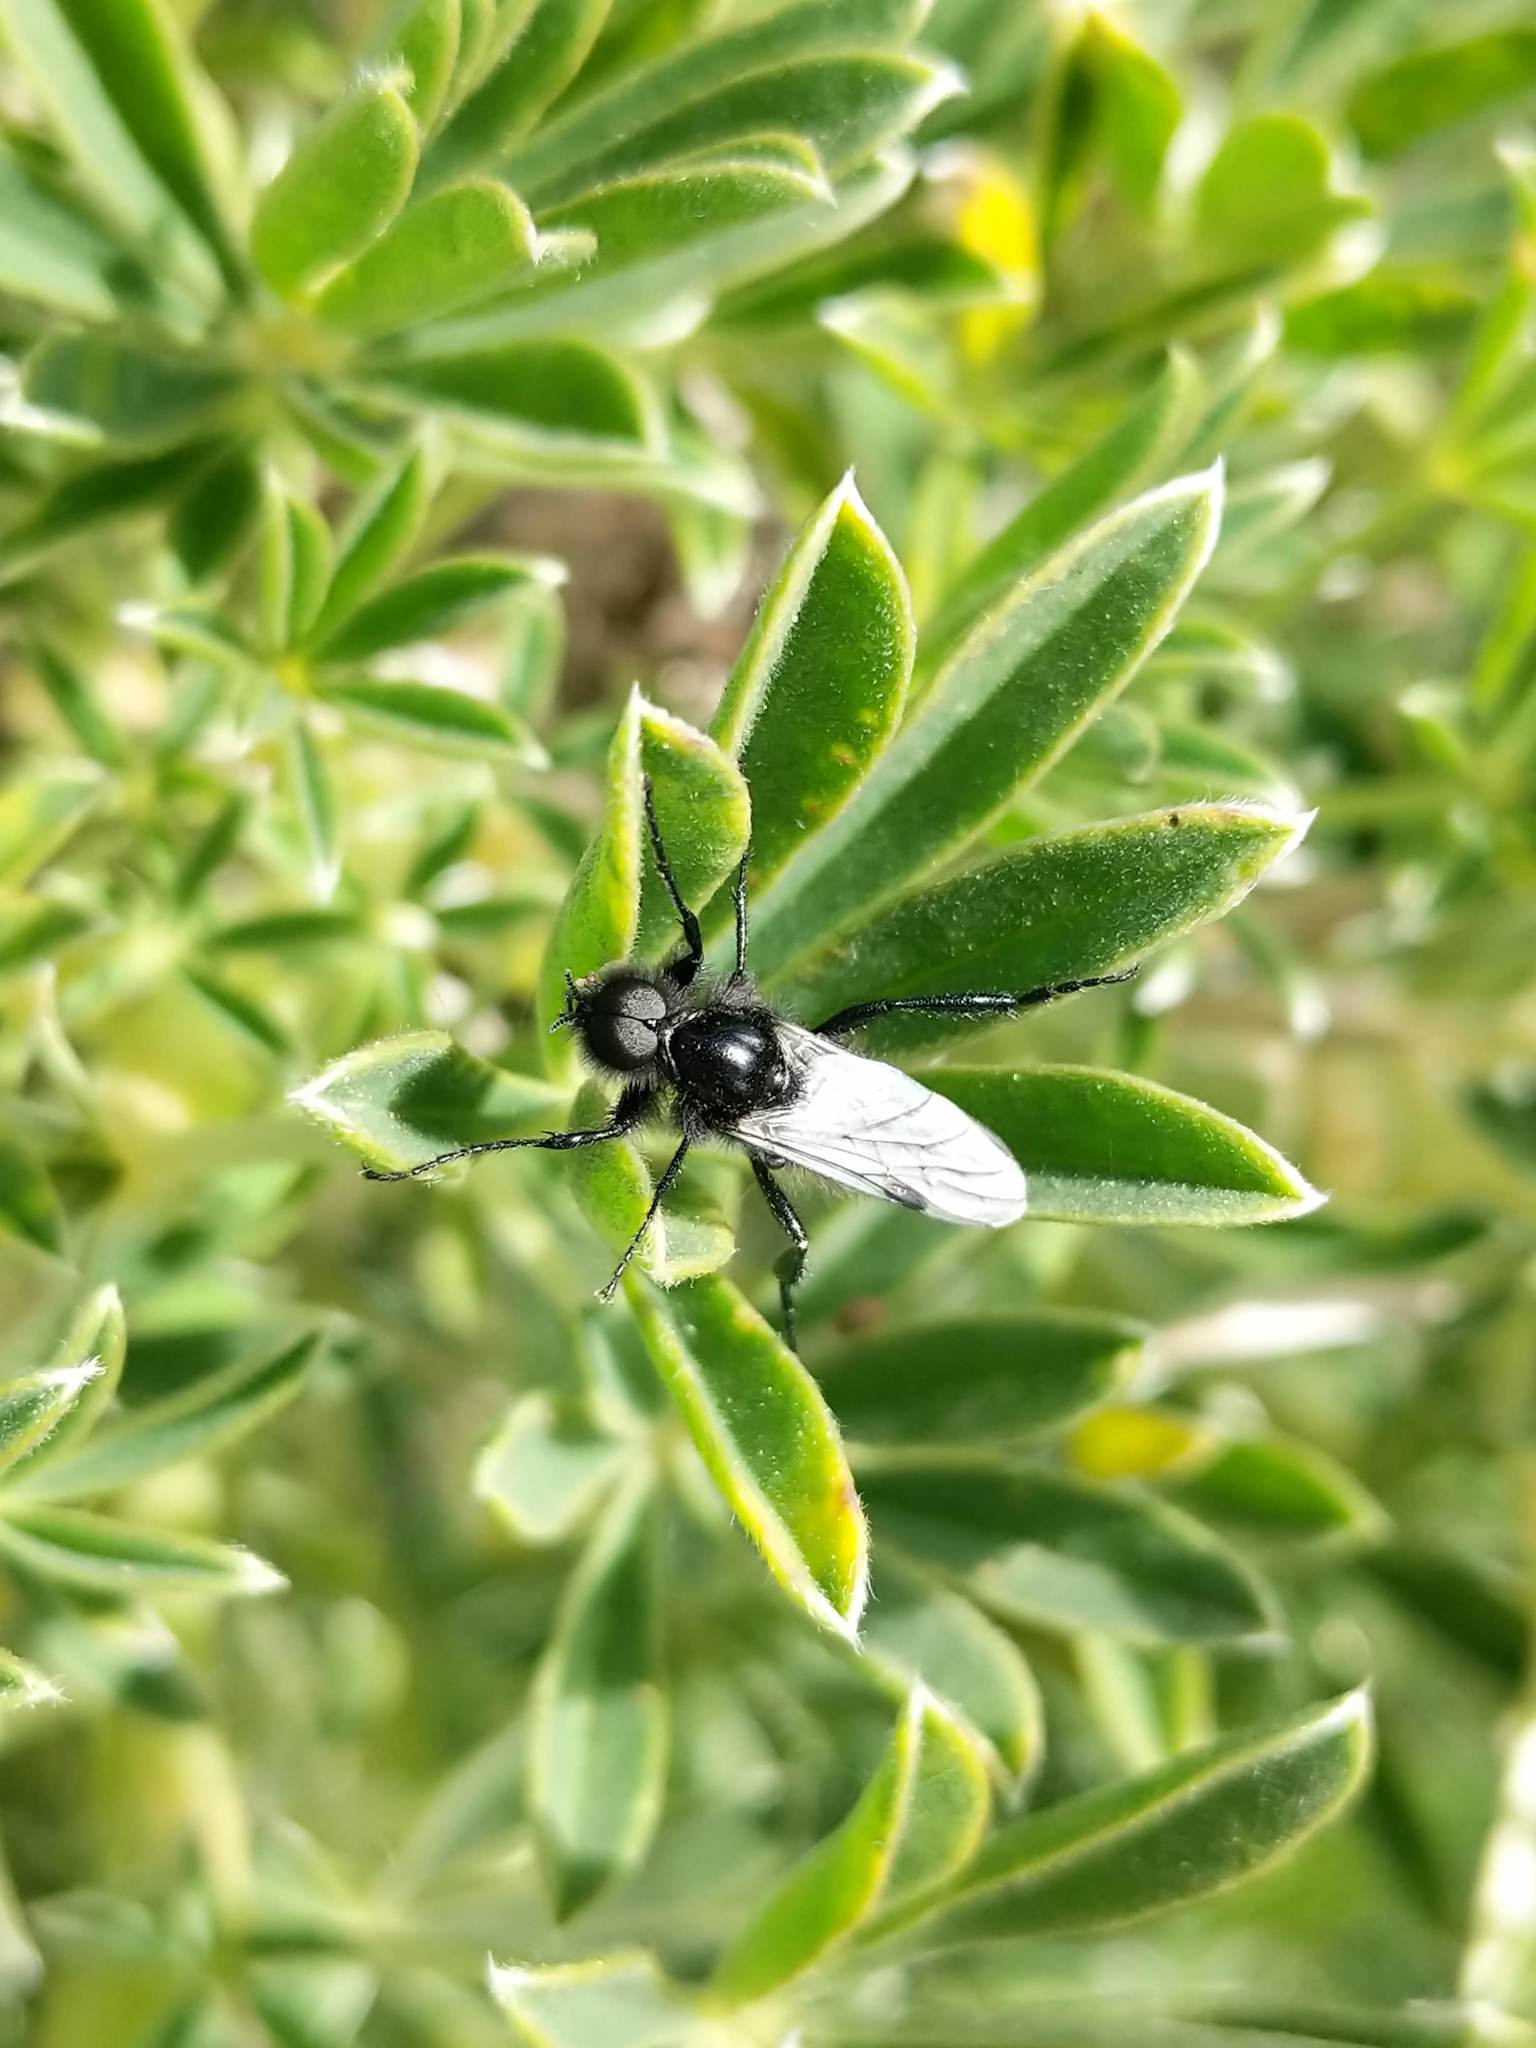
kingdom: Animalia
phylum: Arthropoda
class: Insecta
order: Diptera
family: Bibionidae
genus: Bibio
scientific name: Bibio necotus
